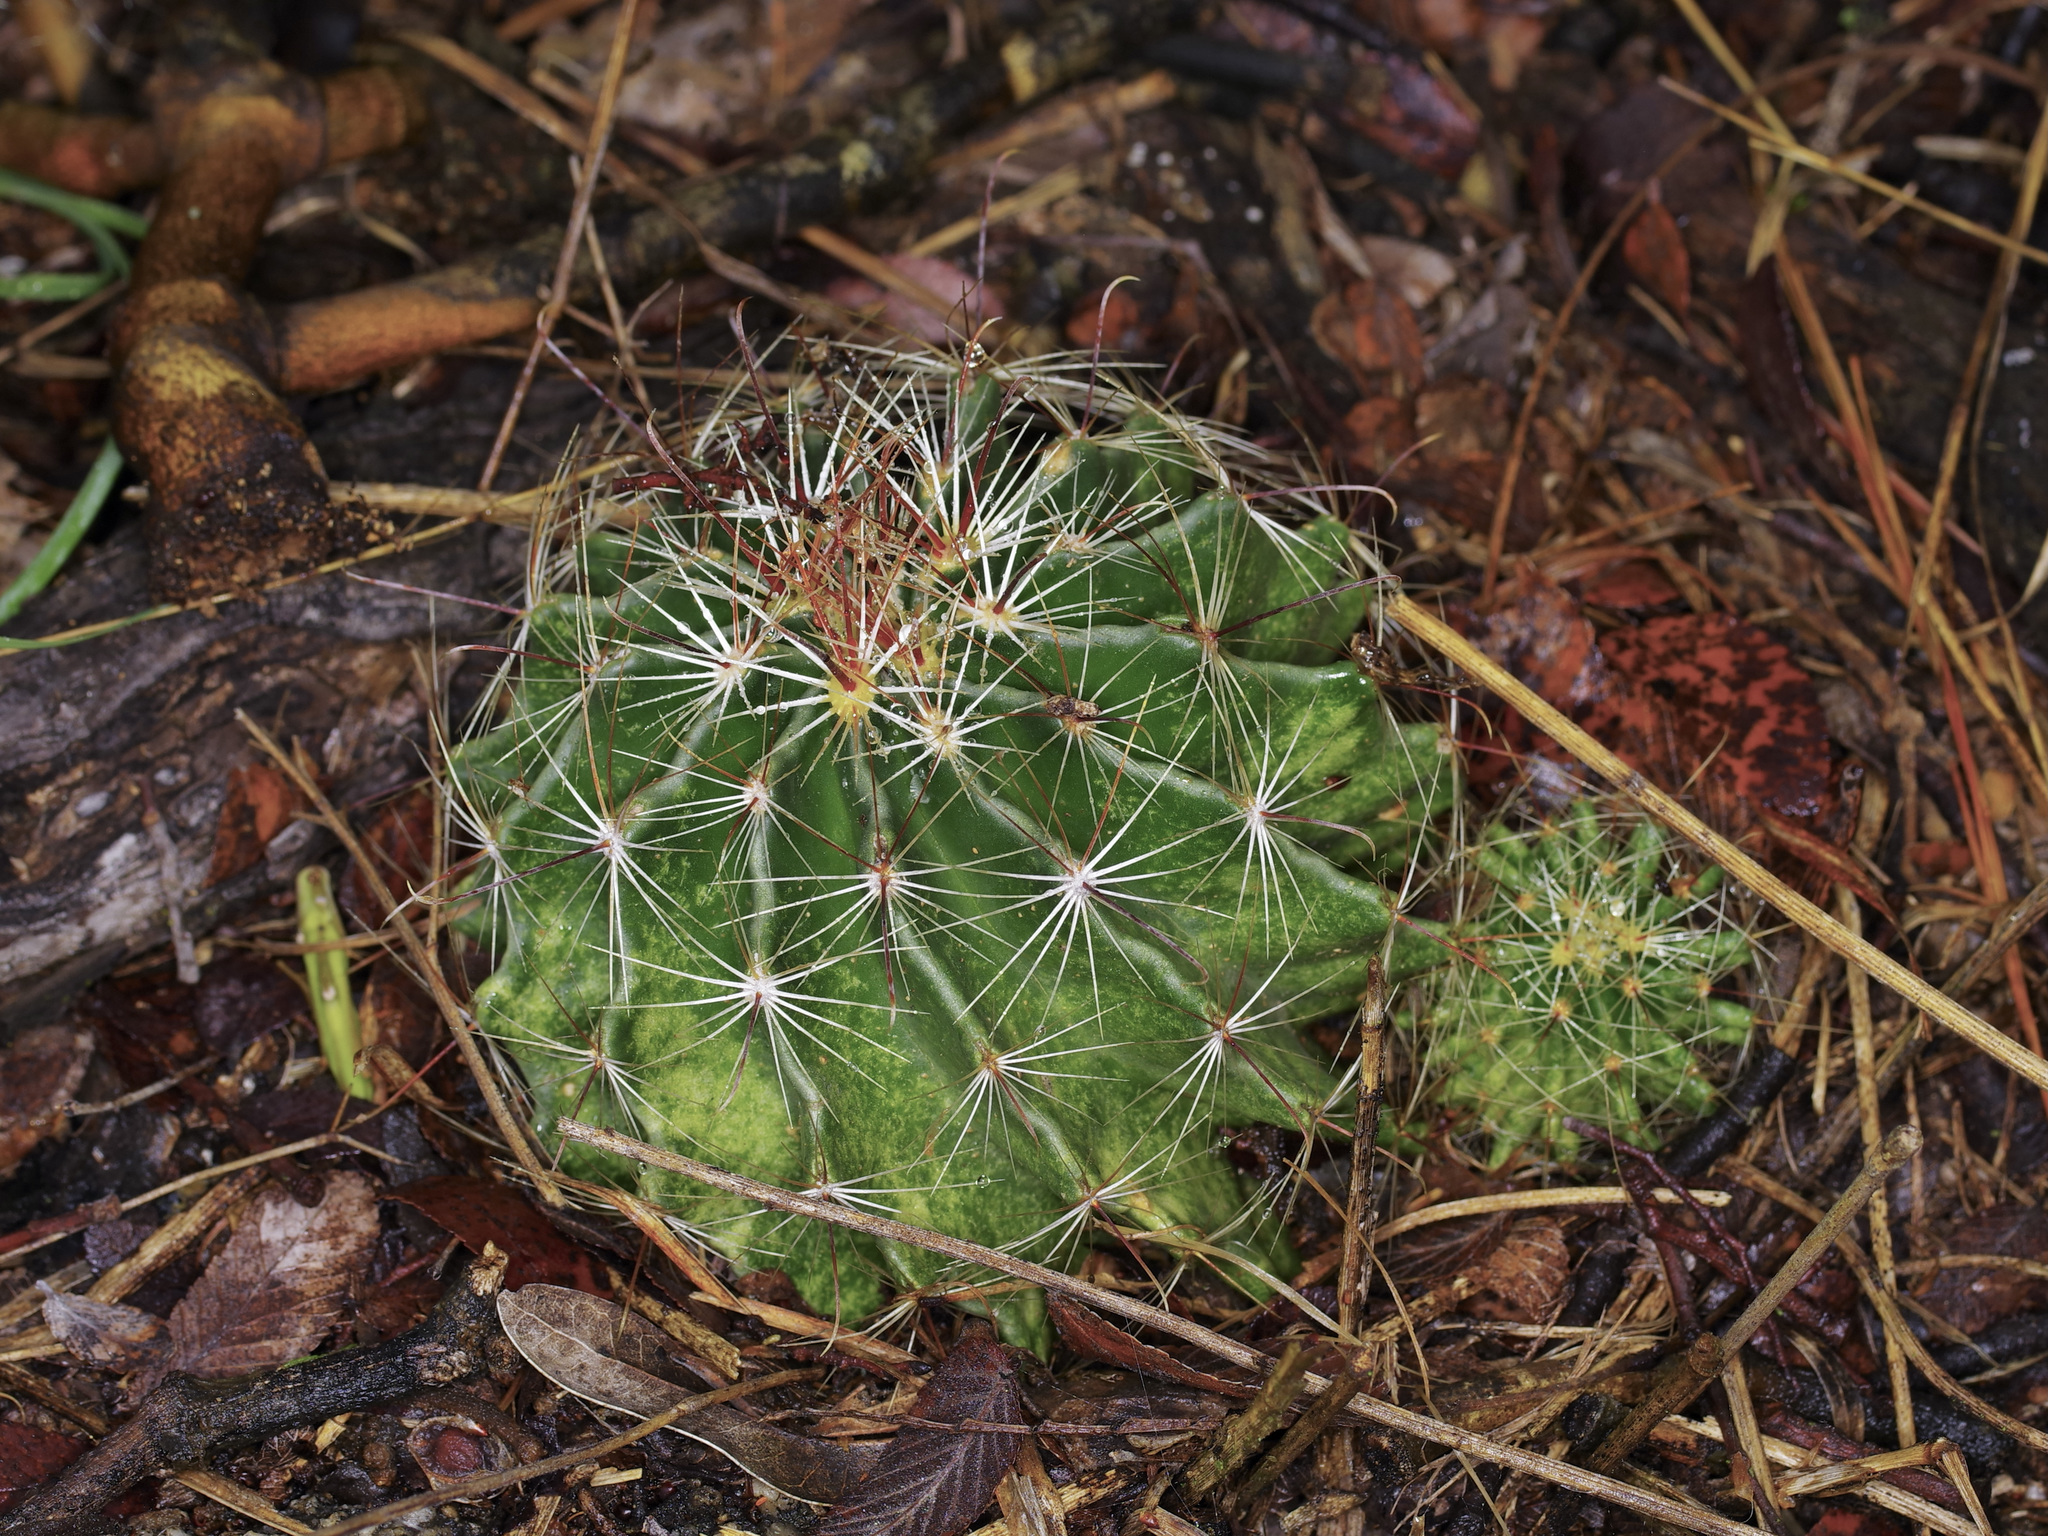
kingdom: Plantae
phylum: Tracheophyta
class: Magnoliopsida
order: Caryophyllales
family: Cactaceae
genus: Thelocactus
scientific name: Thelocactus setispinus
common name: Miniature barrel cactus
